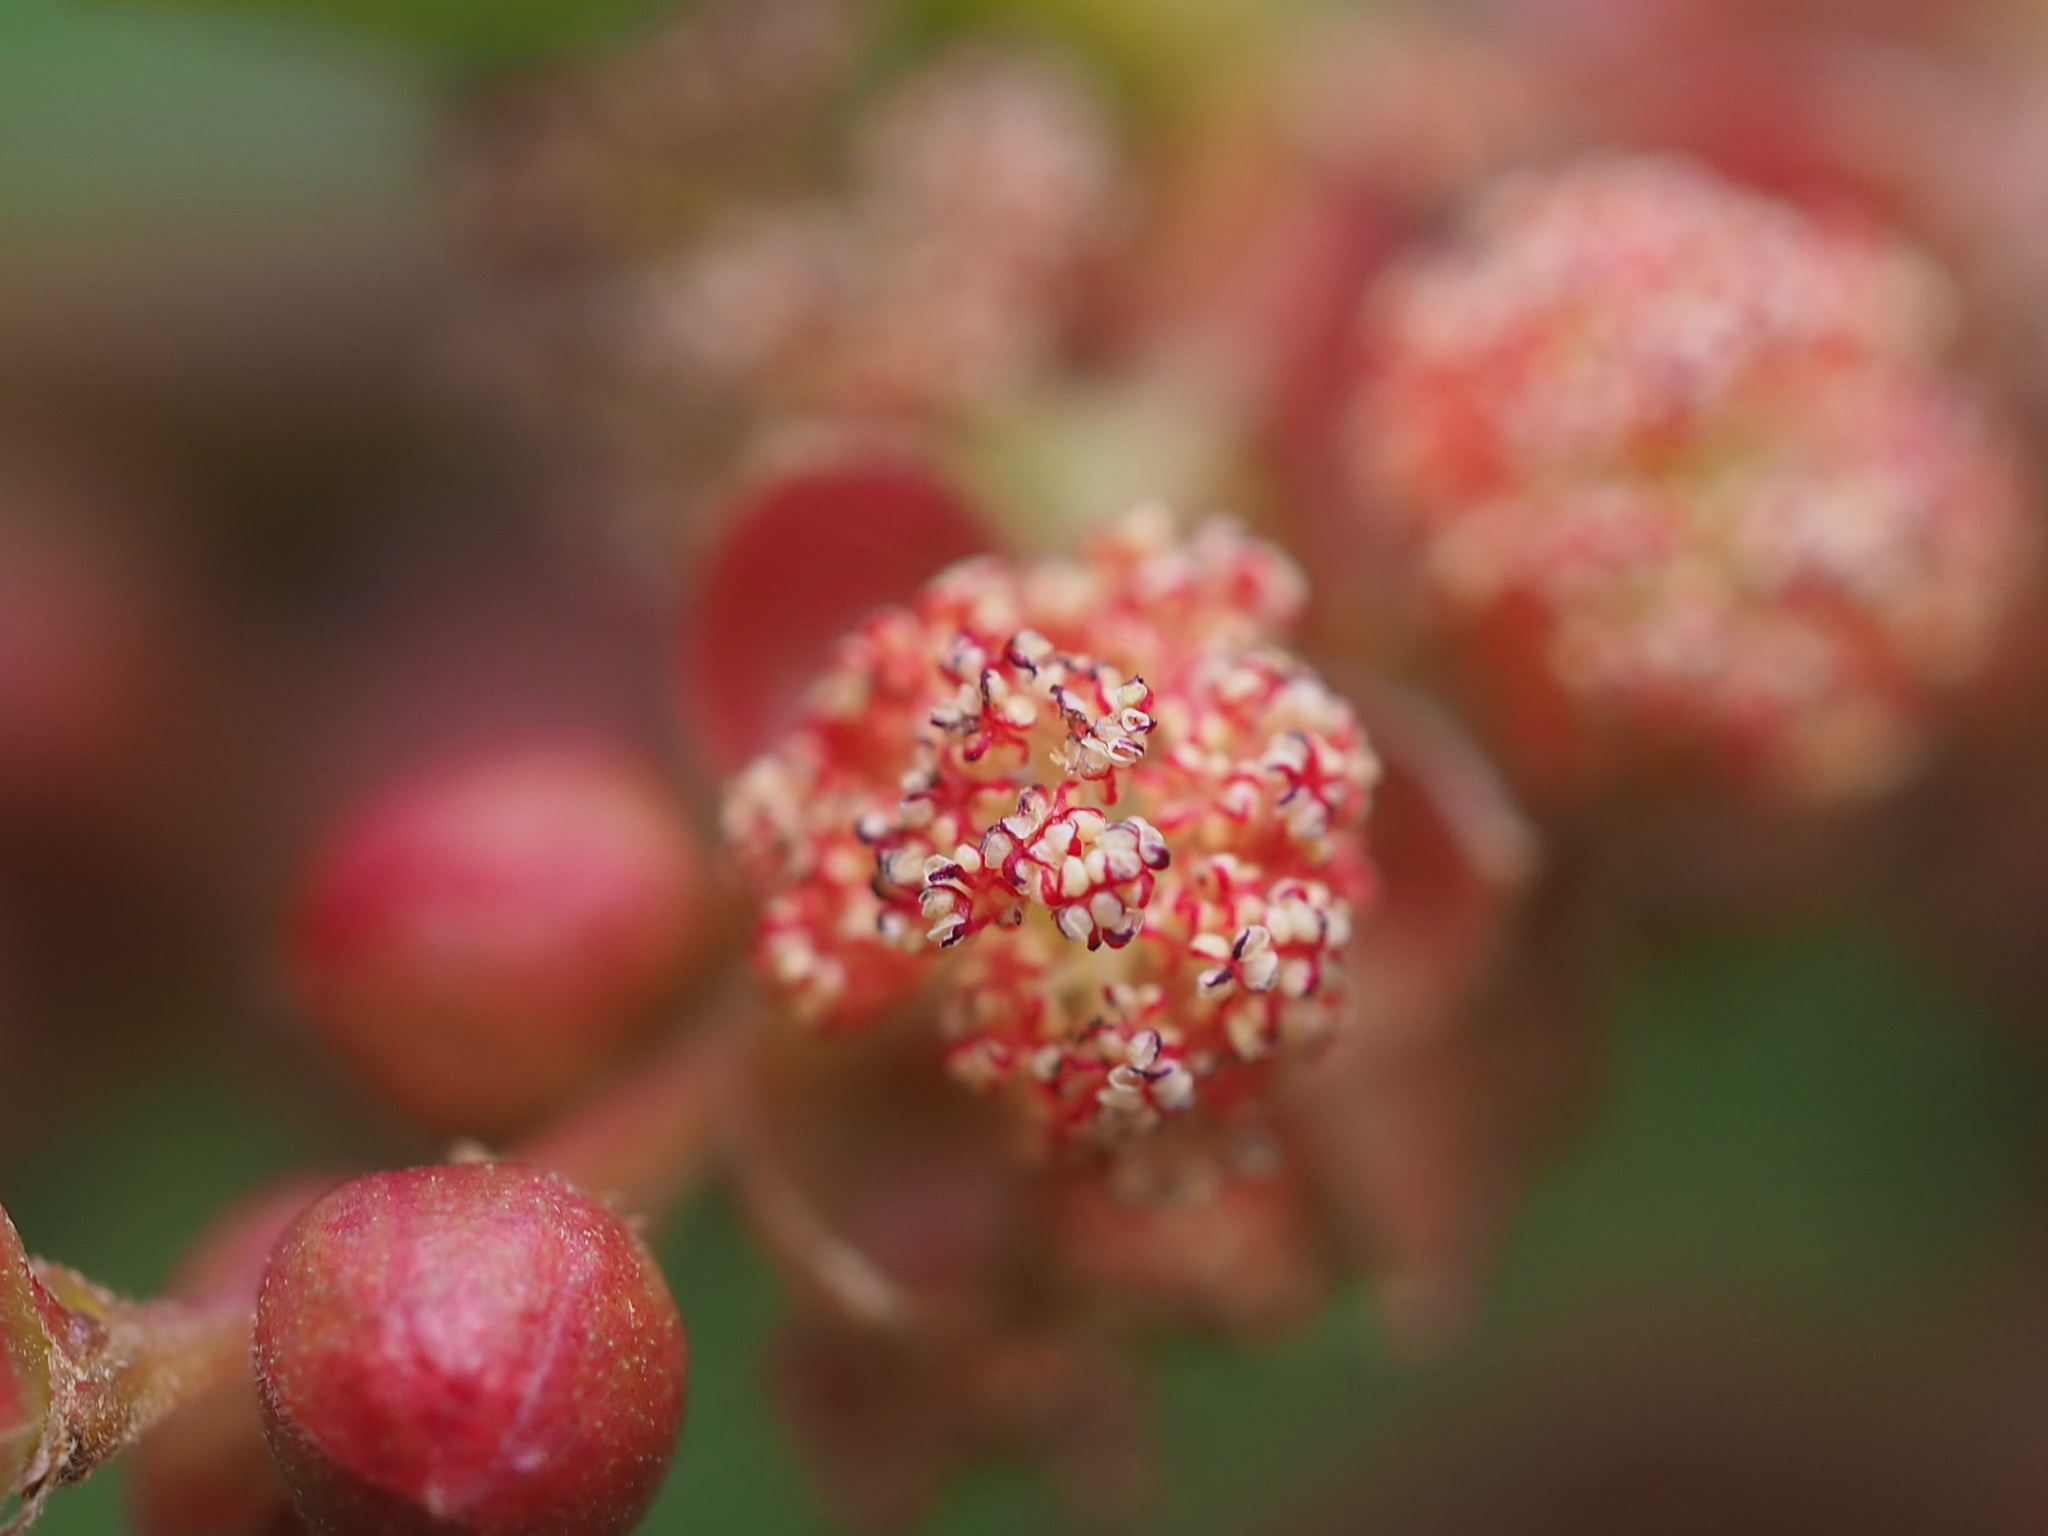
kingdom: Plantae
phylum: Tracheophyta
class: Magnoliopsida
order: Malpighiales
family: Euphorbiaceae
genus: Homonoia
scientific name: Homonoia riparia
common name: Willow-leaved water croton
